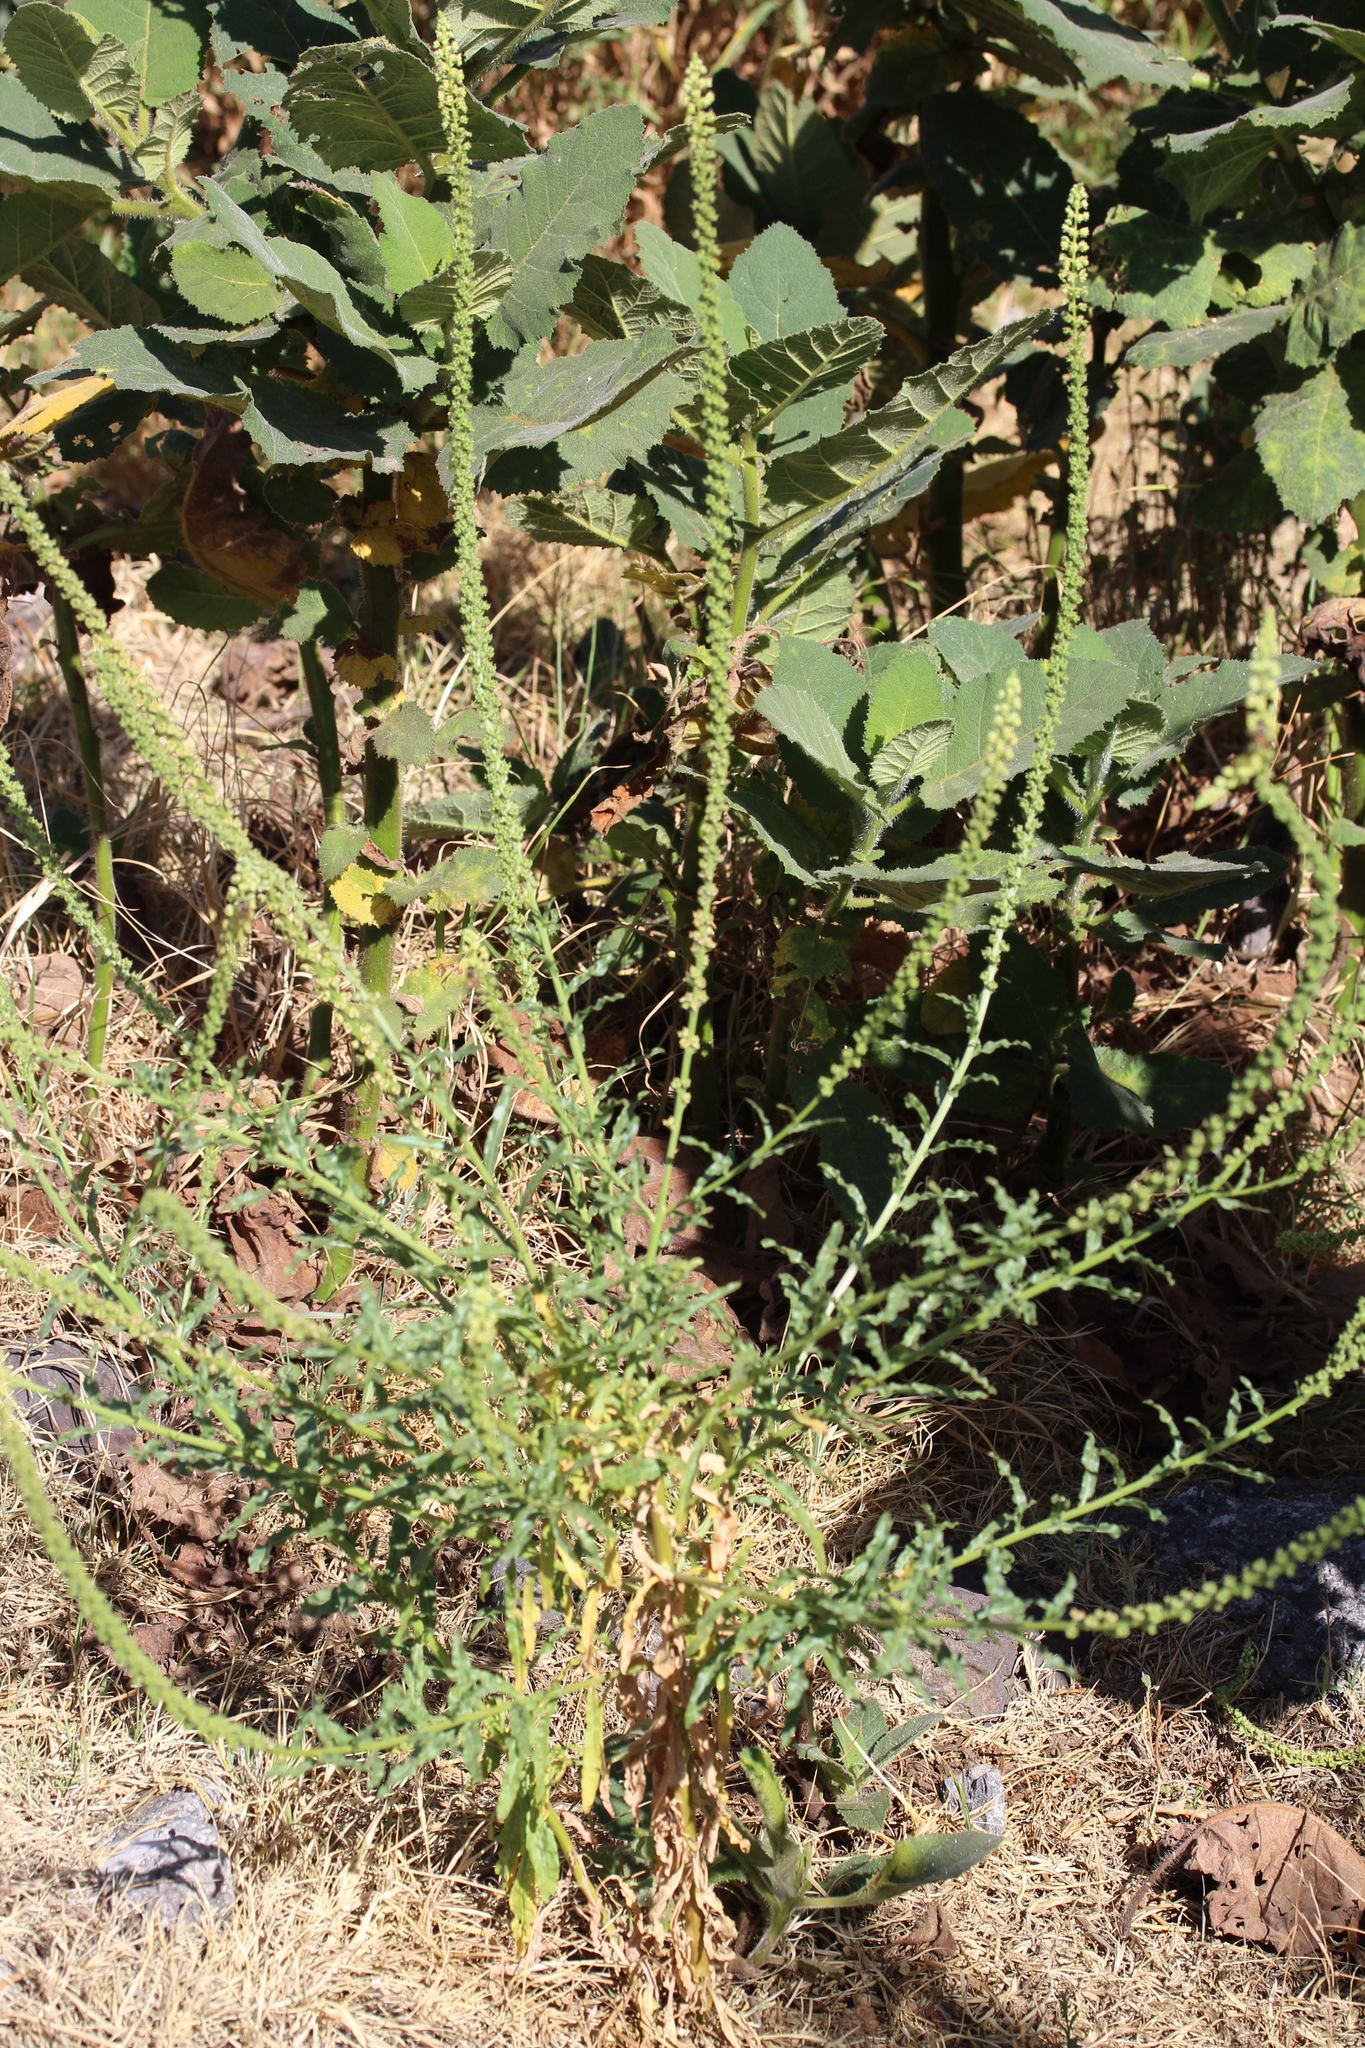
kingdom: Plantae
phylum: Tracheophyta
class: Magnoliopsida
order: Brassicales
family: Resedaceae
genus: Reseda
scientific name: Reseda luteola
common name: Weld
